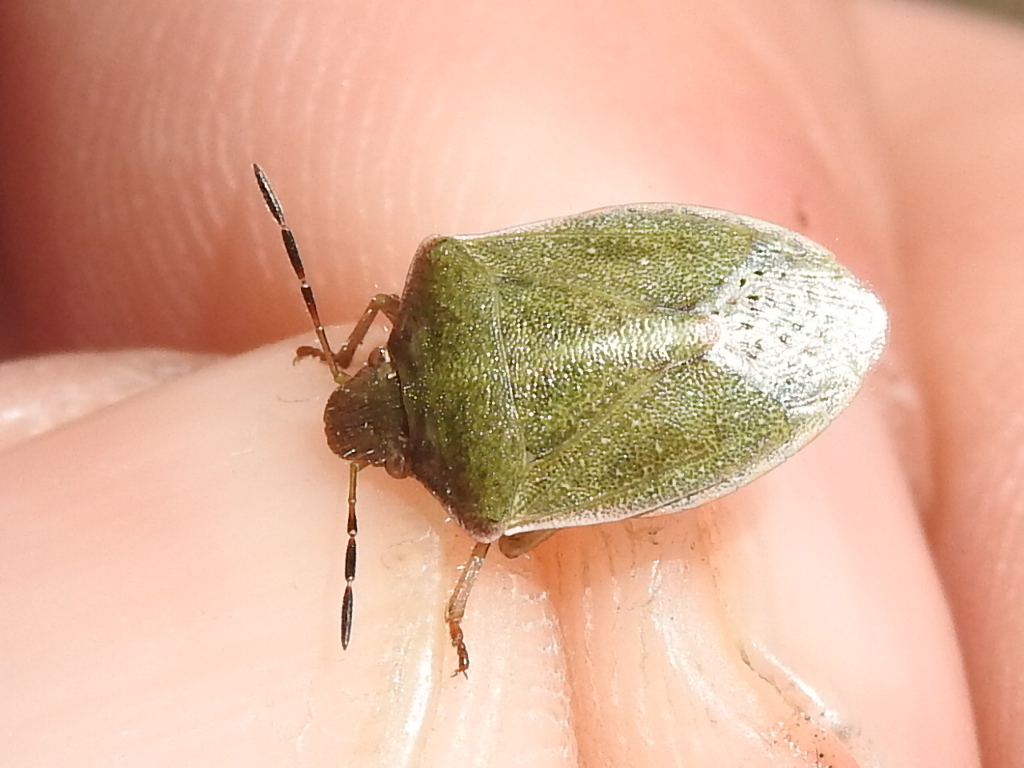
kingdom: Animalia
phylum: Arthropoda
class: Insecta
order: Hemiptera
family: Pentatomidae
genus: Thyanta
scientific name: Thyanta accerra
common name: Stink bug
